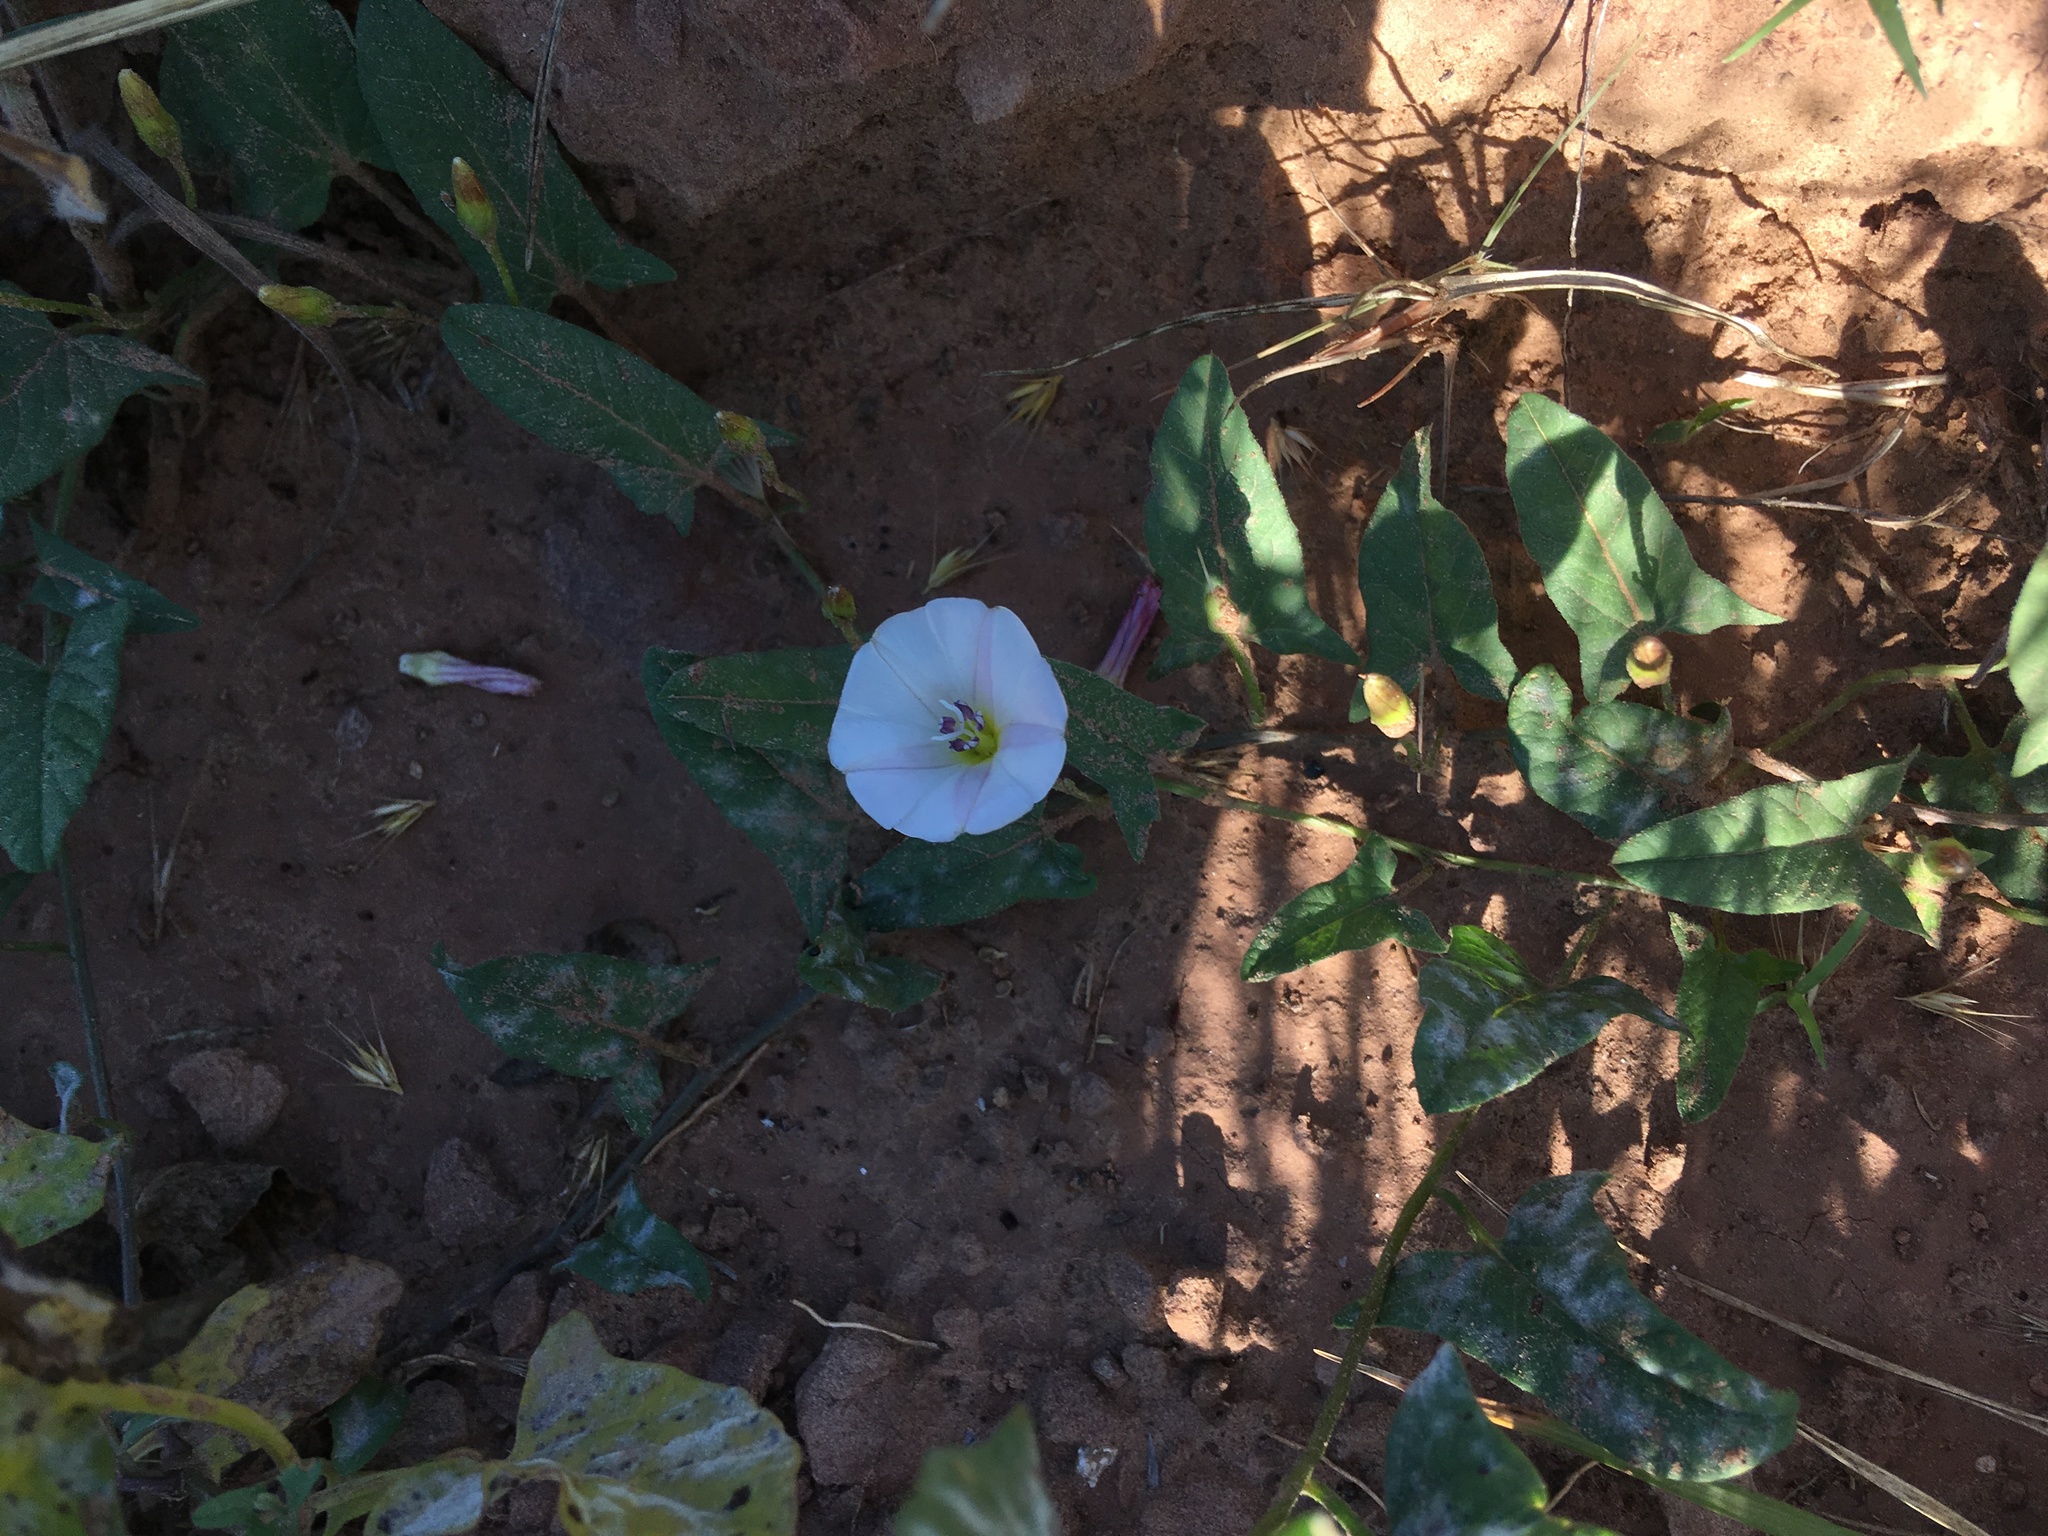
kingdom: Plantae
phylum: Tracheophyta
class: Magnoliopsida
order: Solanales
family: Convolvulaceae
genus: Convolvulus
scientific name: Convolvulus arvensis
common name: Field bindweed
